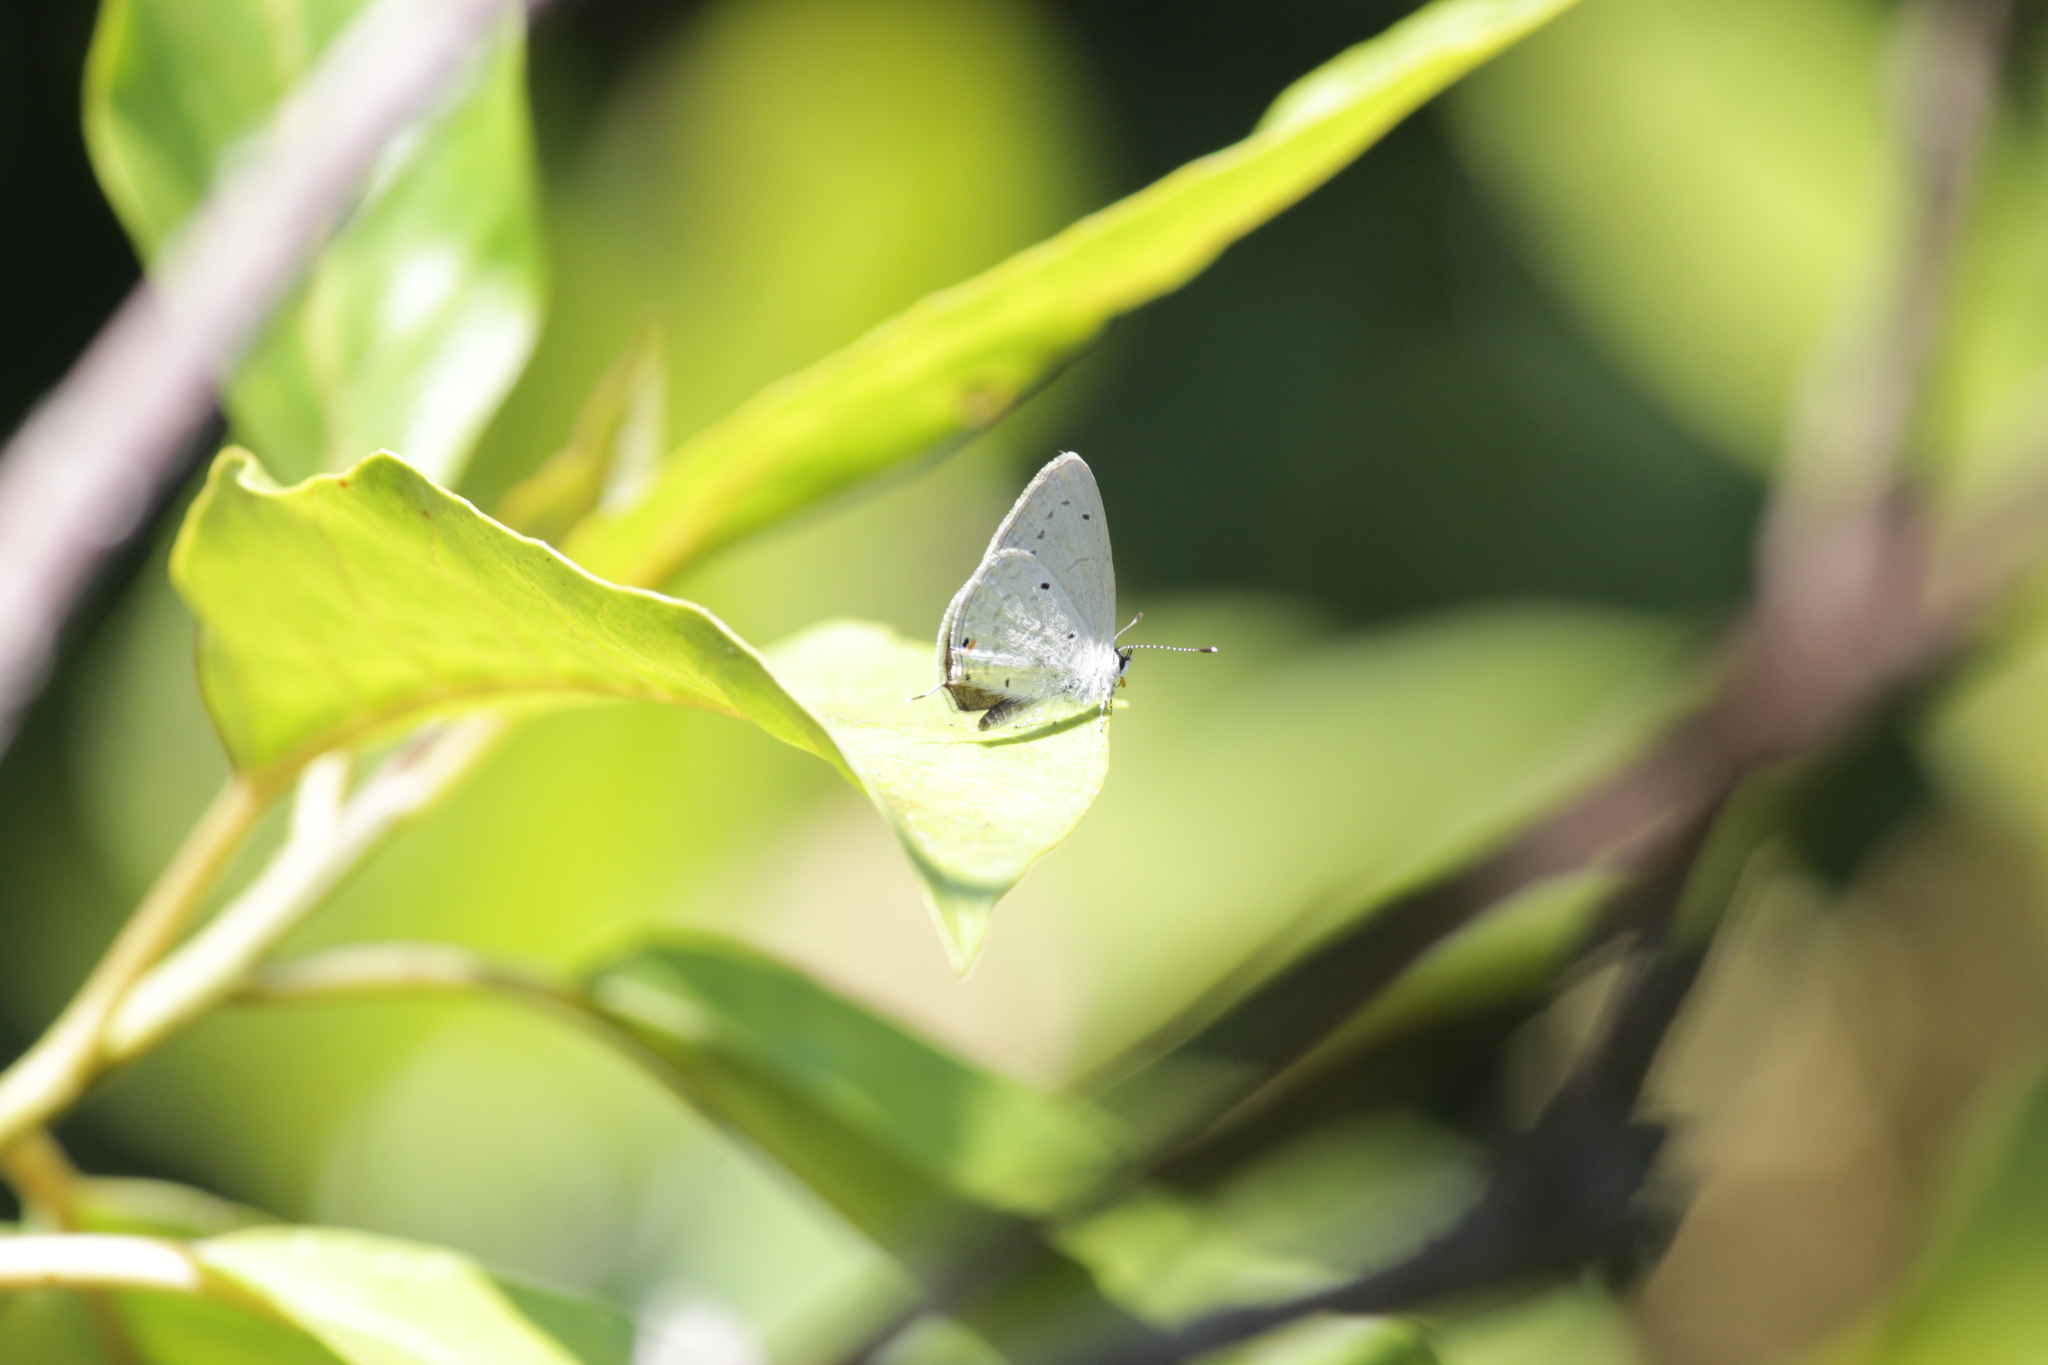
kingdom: Animalia
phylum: Arthropoda
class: Insecta
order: Lepidoptera
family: Lycaenidae
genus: Eicochrysops
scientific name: Eicochrysops hippocrates
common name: White-tipped blue
